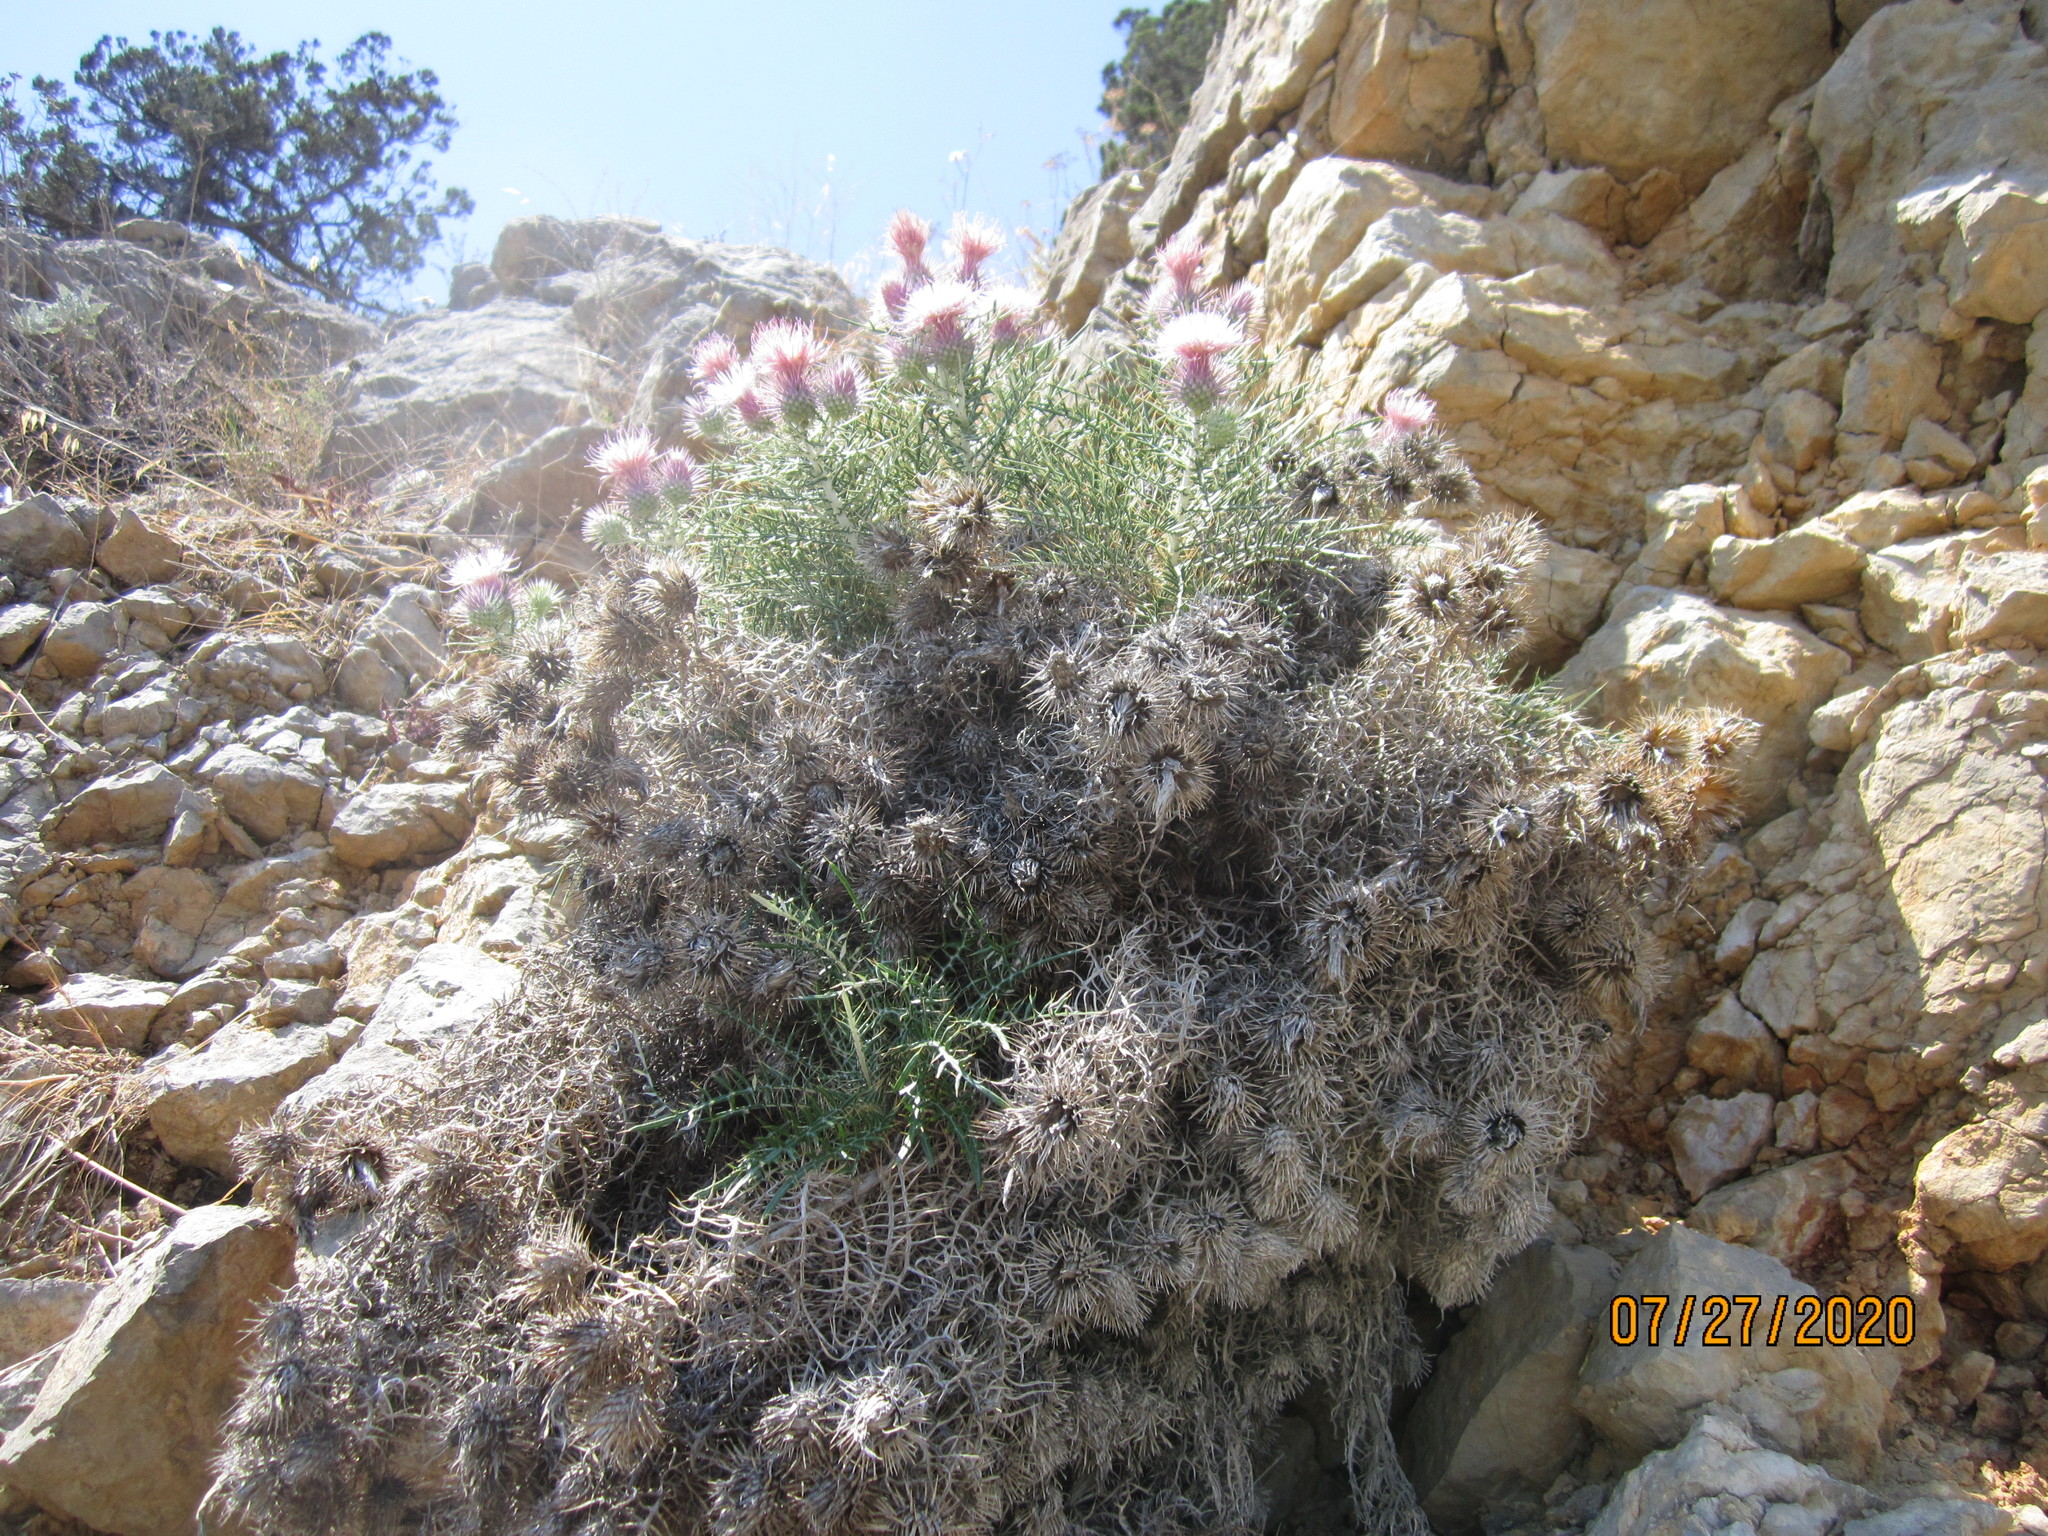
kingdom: Plantae
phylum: Tracheophyta
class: Magnoliopsida
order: Asterales
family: Asteraceae
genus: Ptilostemon
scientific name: Ptilostemon echinocephalus
